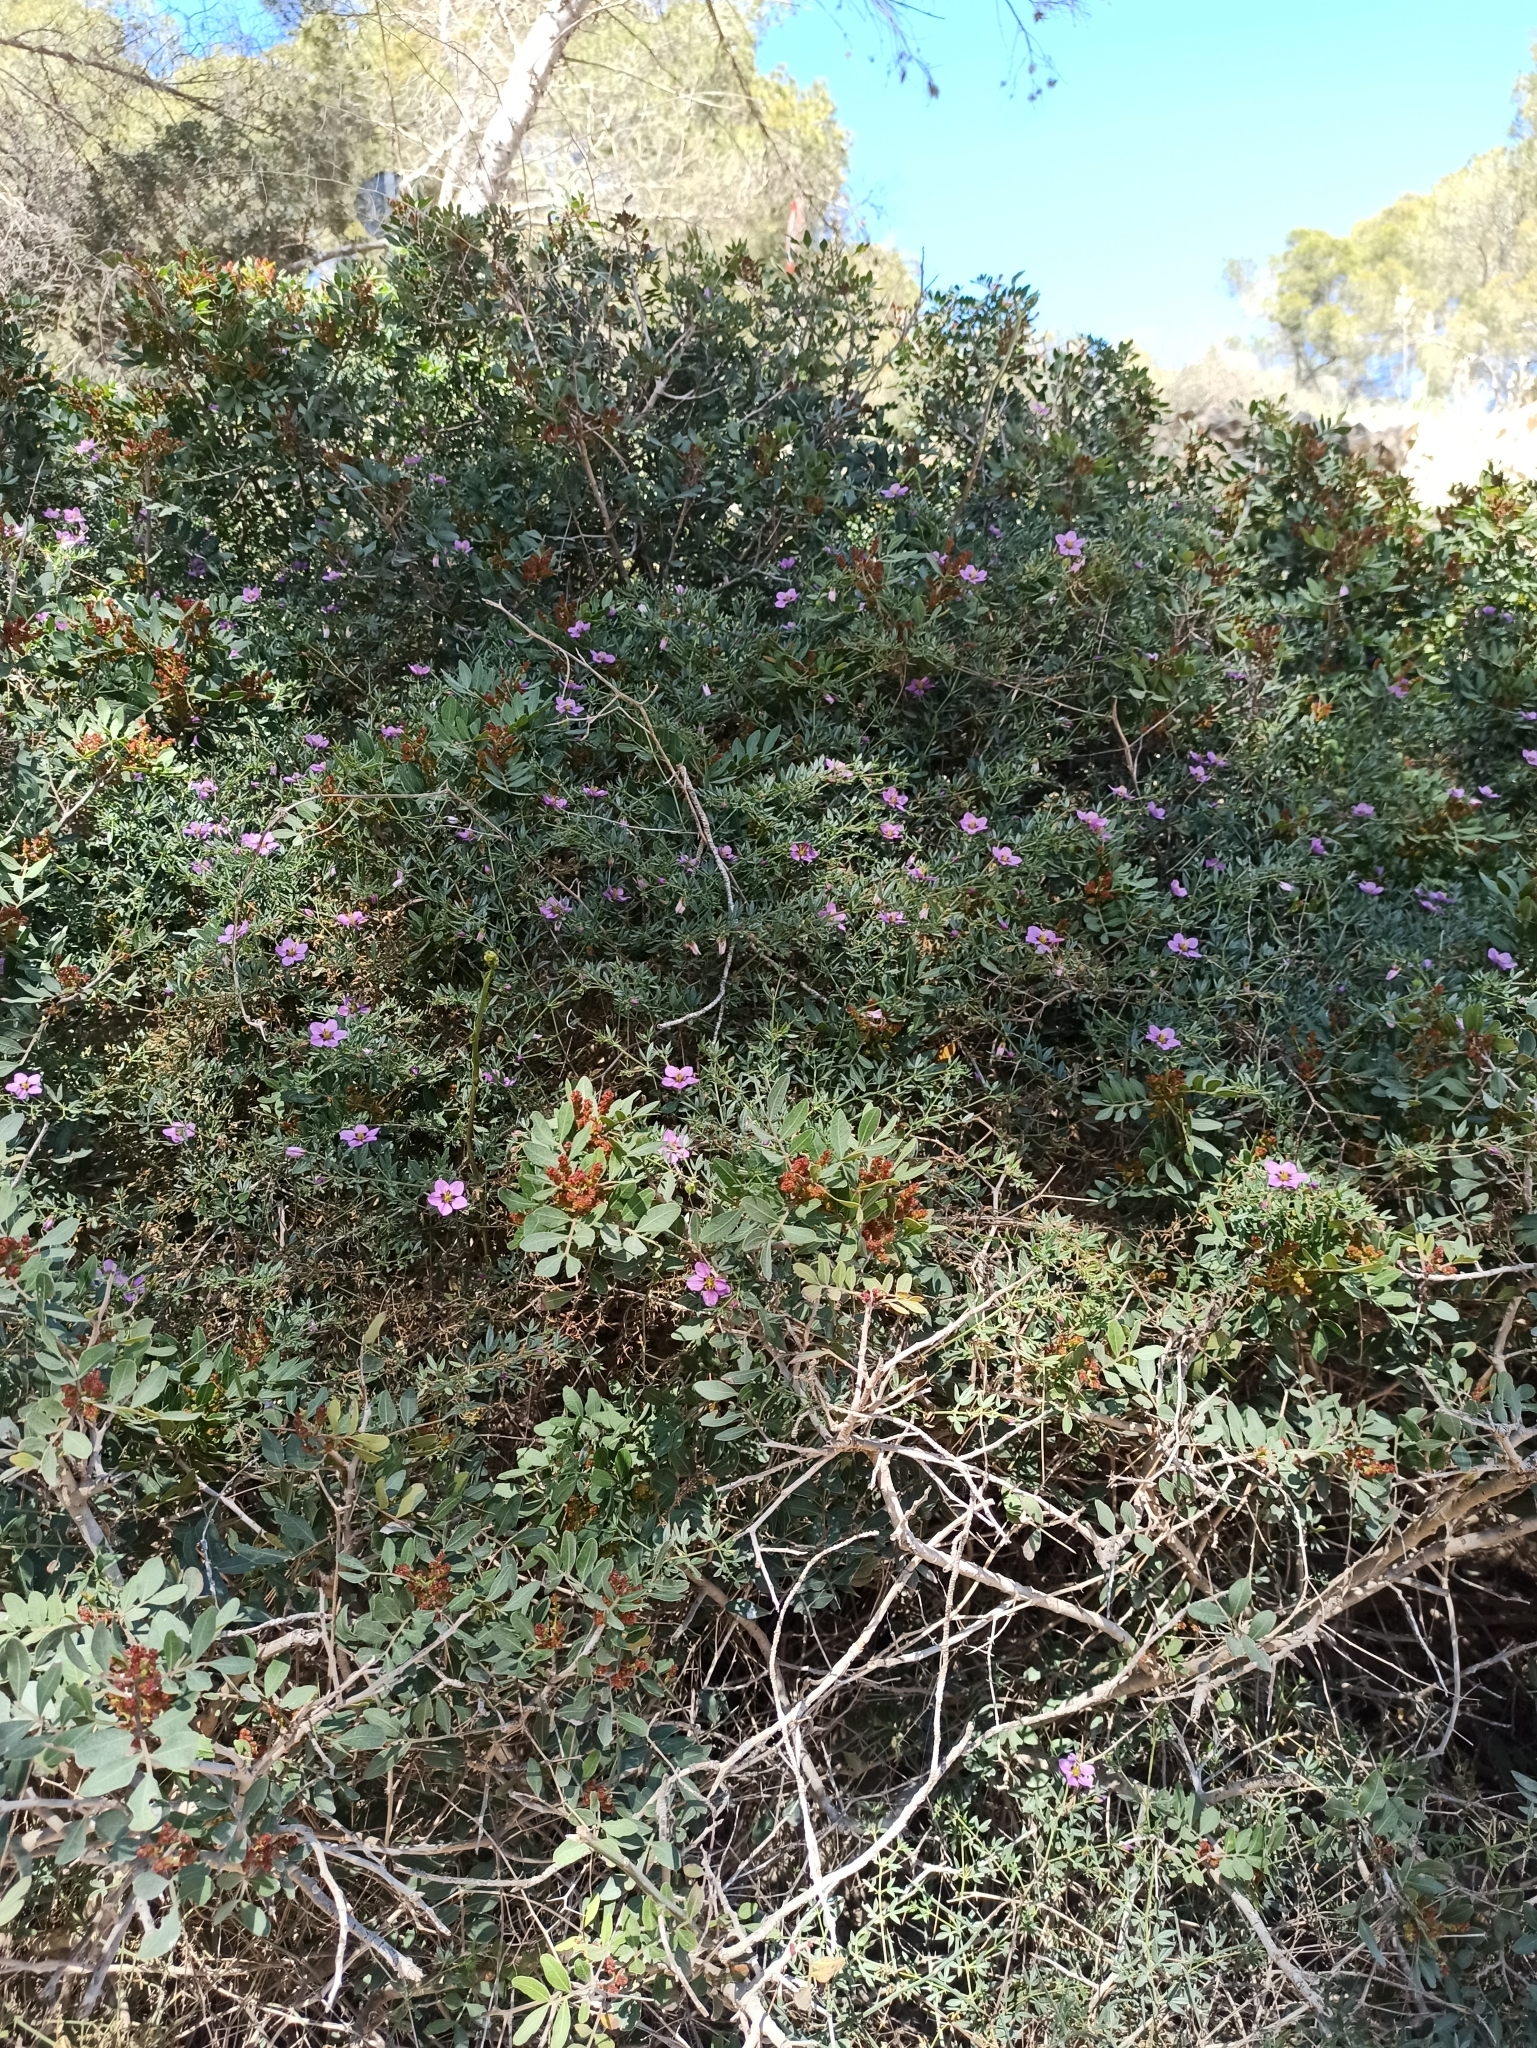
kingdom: Plantae
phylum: Tracheophyta
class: Magnoliopsida
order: Zygophyllales
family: Zygophyllaceae
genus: Fagonia
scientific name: Fagonia cretica
